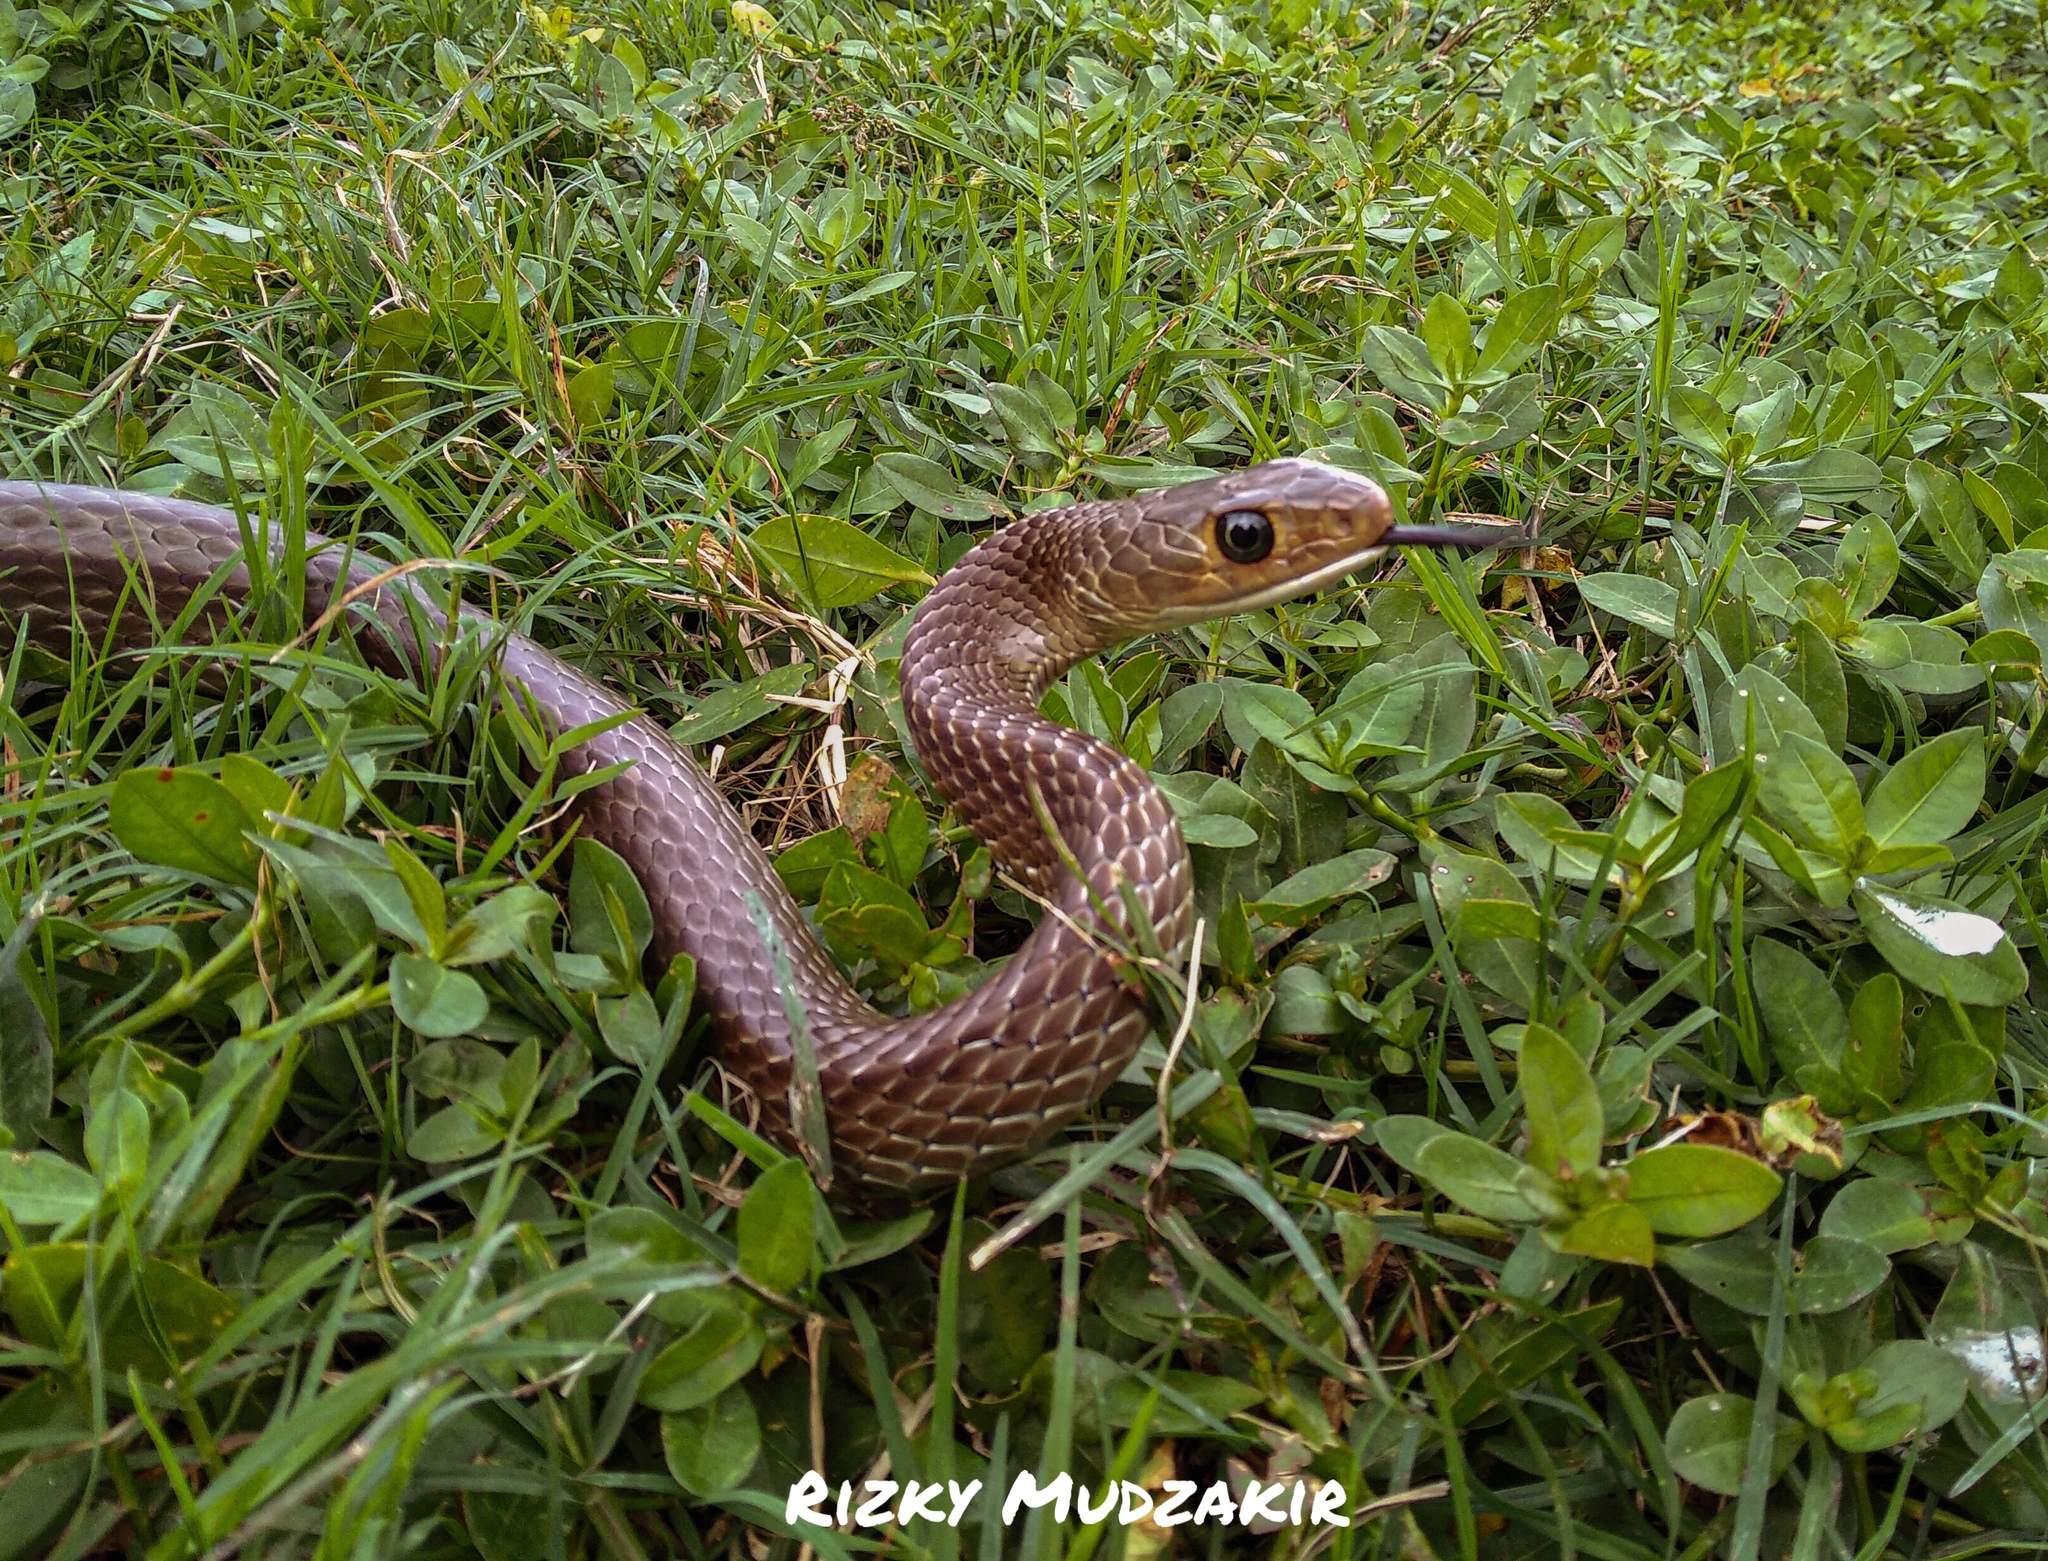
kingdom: Animalia
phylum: Chordata
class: Squamata
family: Colubridae
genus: Ptyas
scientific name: Ptyas korros
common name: Indo-chinese rat snake
